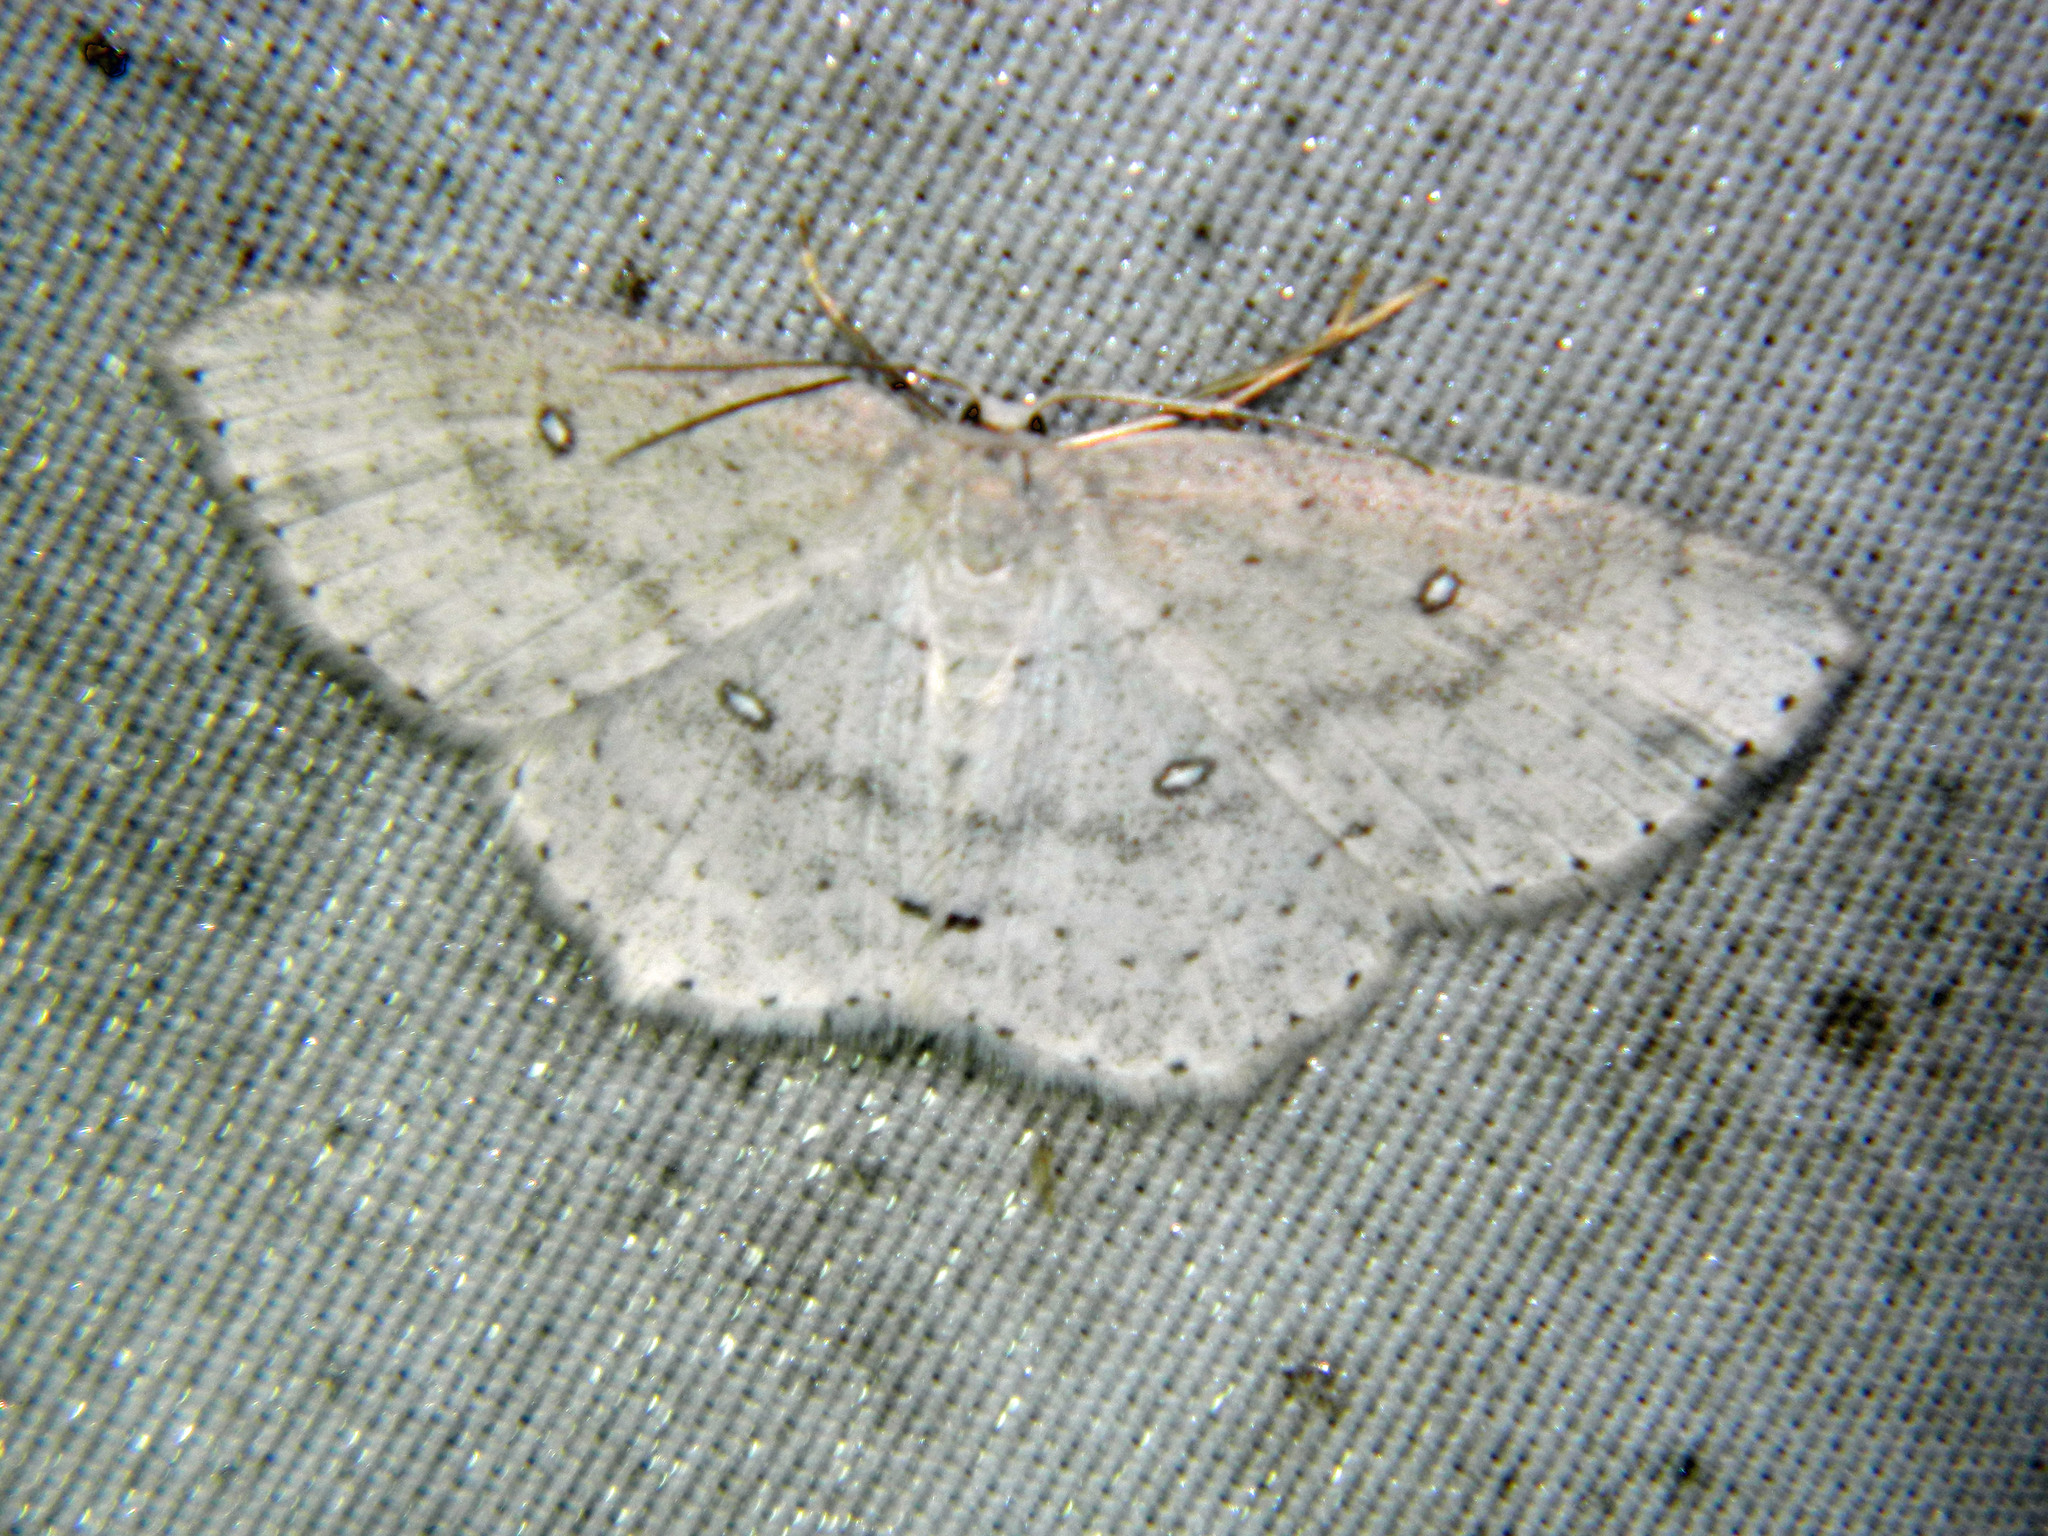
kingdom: Animalia
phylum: Arthropoda
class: Insecta
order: Lepidoptera
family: Geometridae
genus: Cyclophora
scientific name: Cyclophora pendulinaria
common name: Sweet fern geometer
